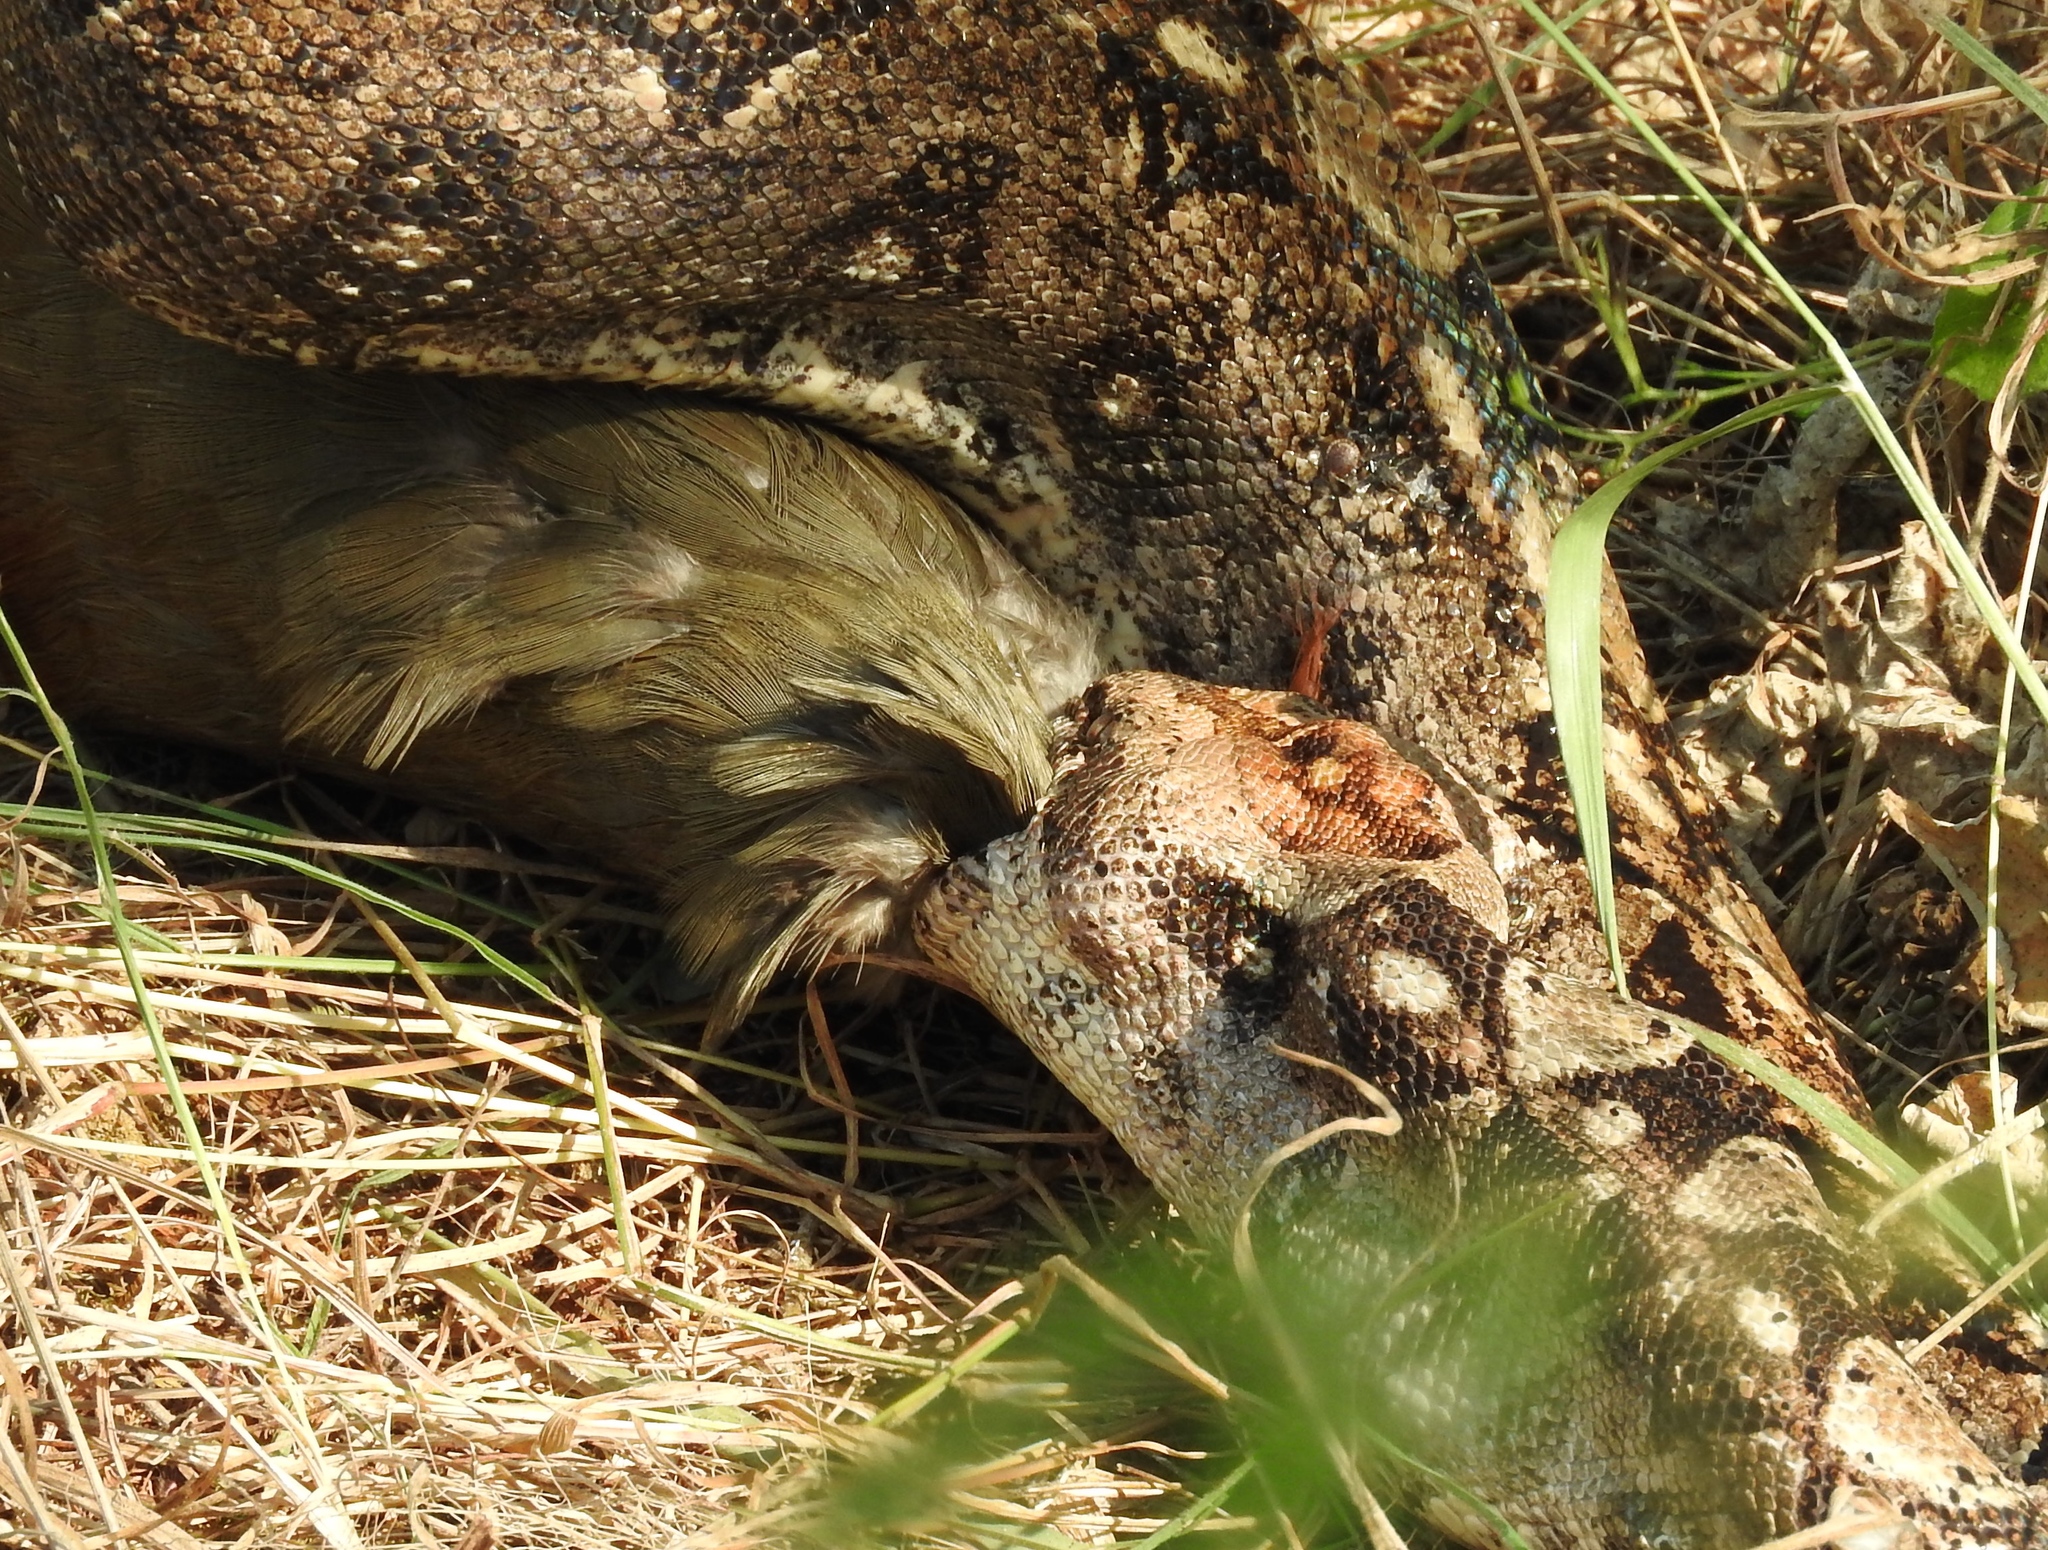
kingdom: Animalia
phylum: Chordata
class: Squamata
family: Boidae
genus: Boa
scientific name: Boa
